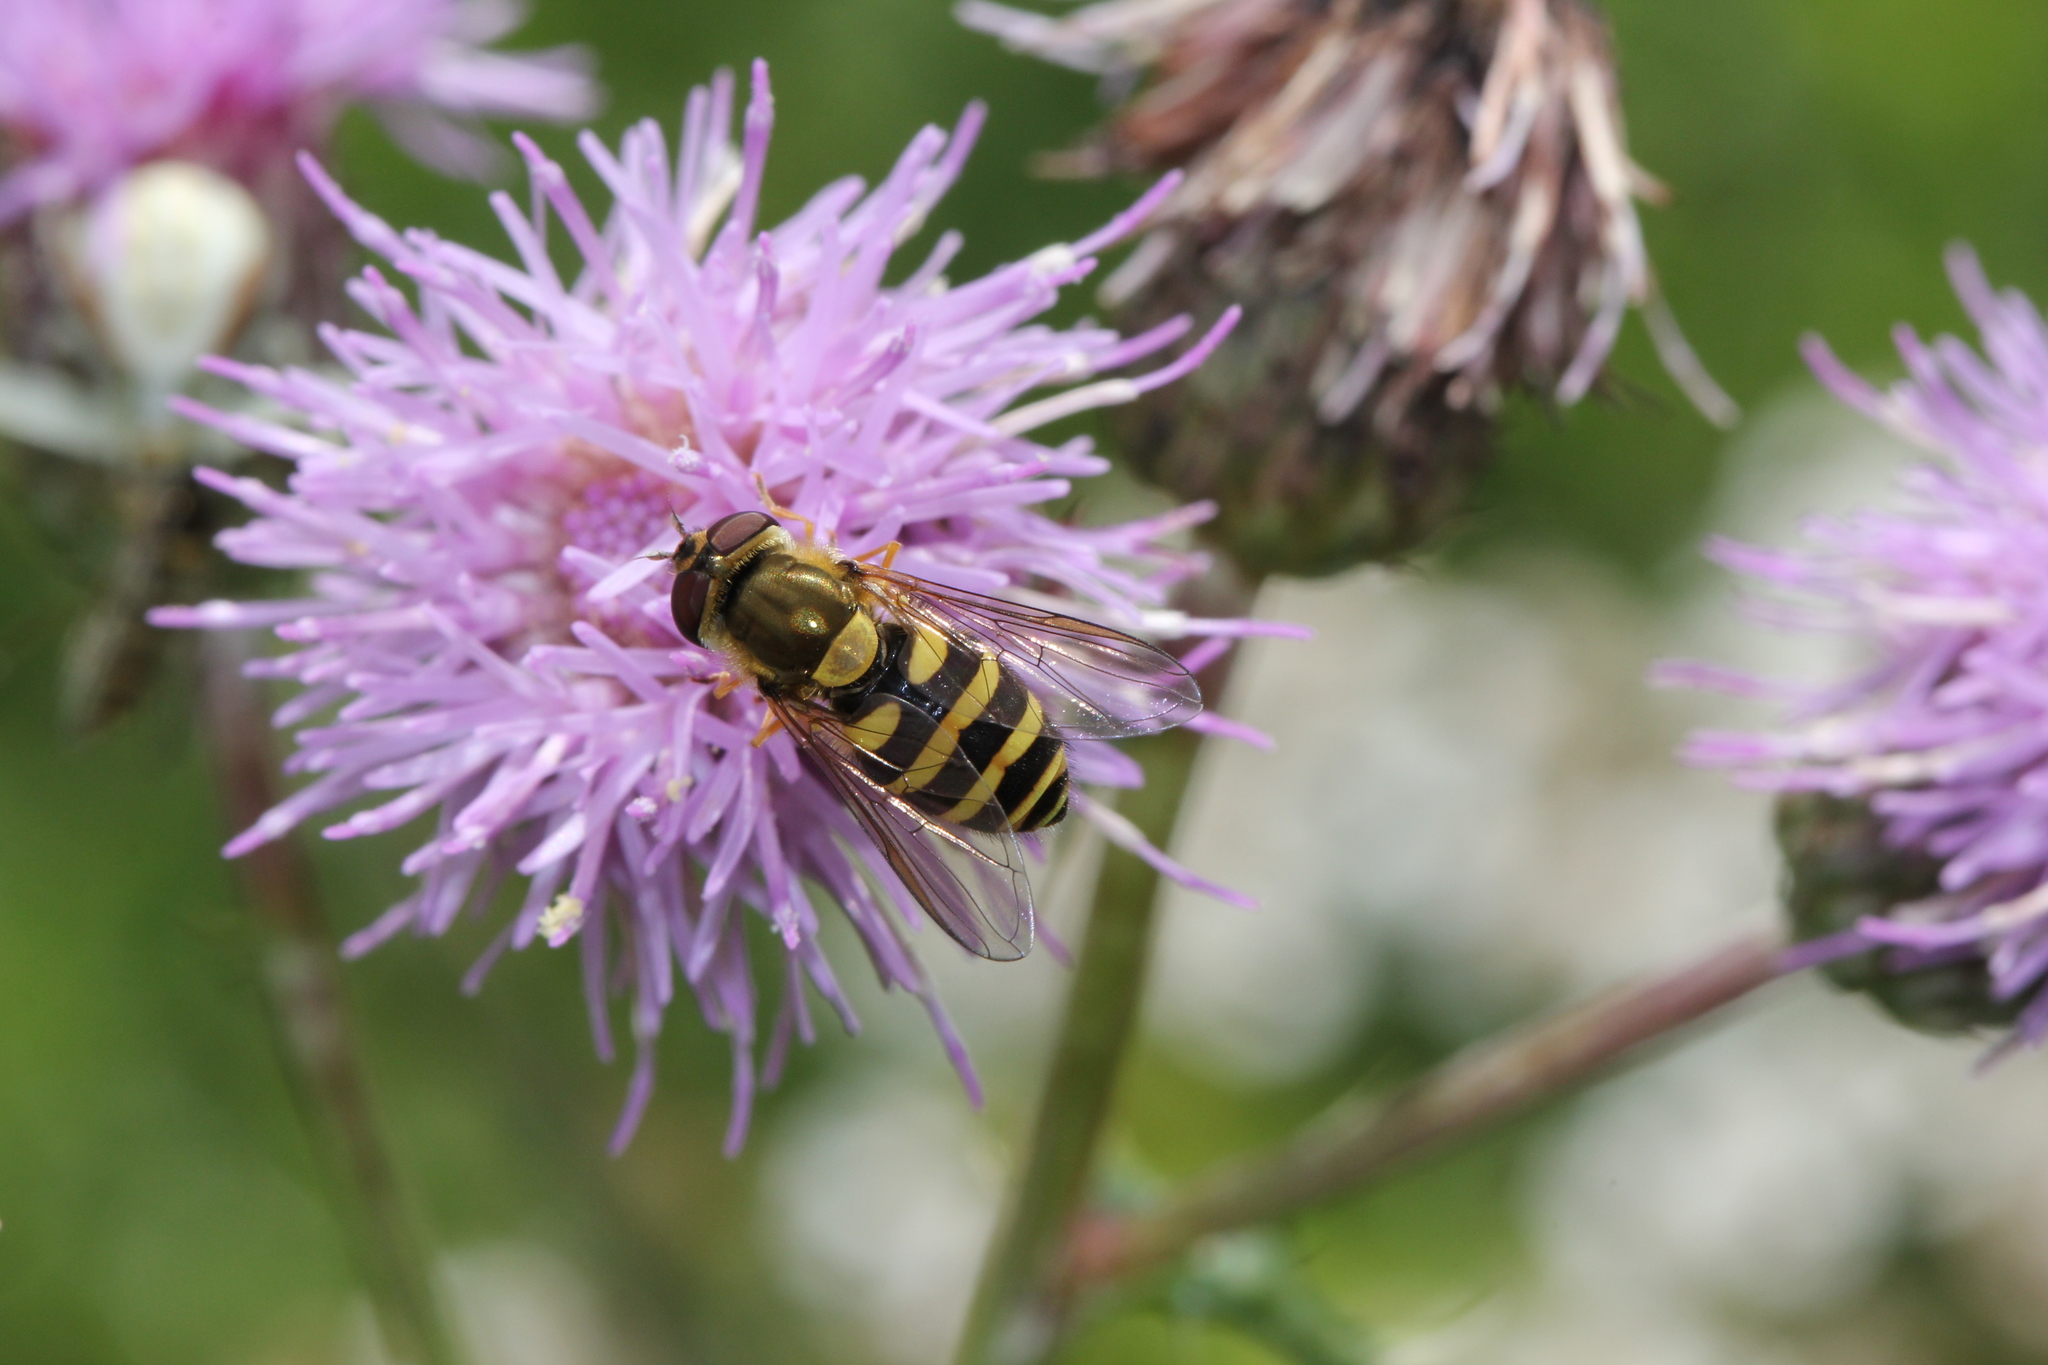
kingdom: Animalia
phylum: Arthropoda
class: Insecta
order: Diptera
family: Syrphidae
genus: Syrphus
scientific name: Syrphus
